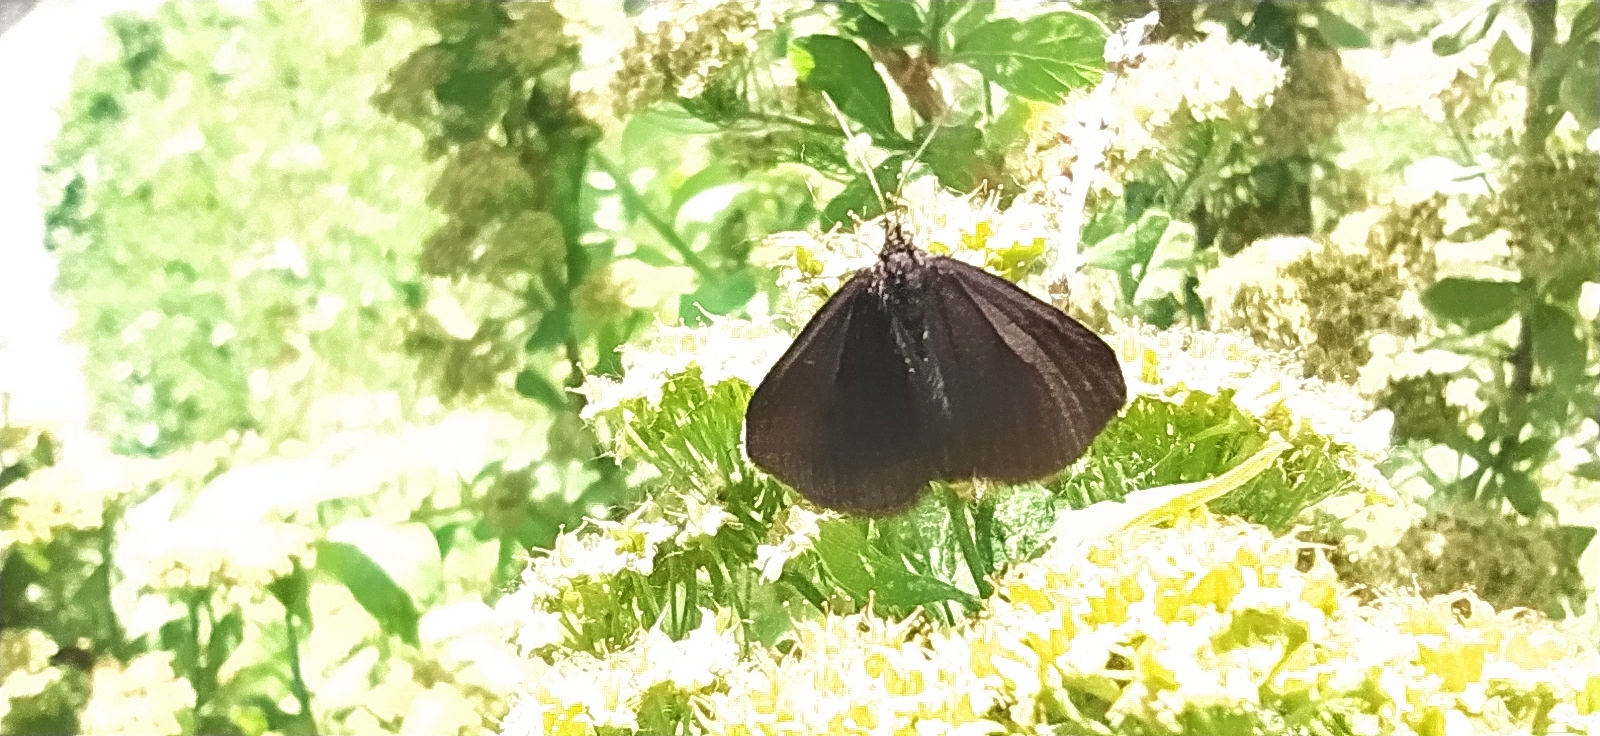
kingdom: Animalia
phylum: Arthropoda
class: Insecta
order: Lepidoptera
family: Geometridae
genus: Odezia
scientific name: Odezia atrata
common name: Chimney sweeper
